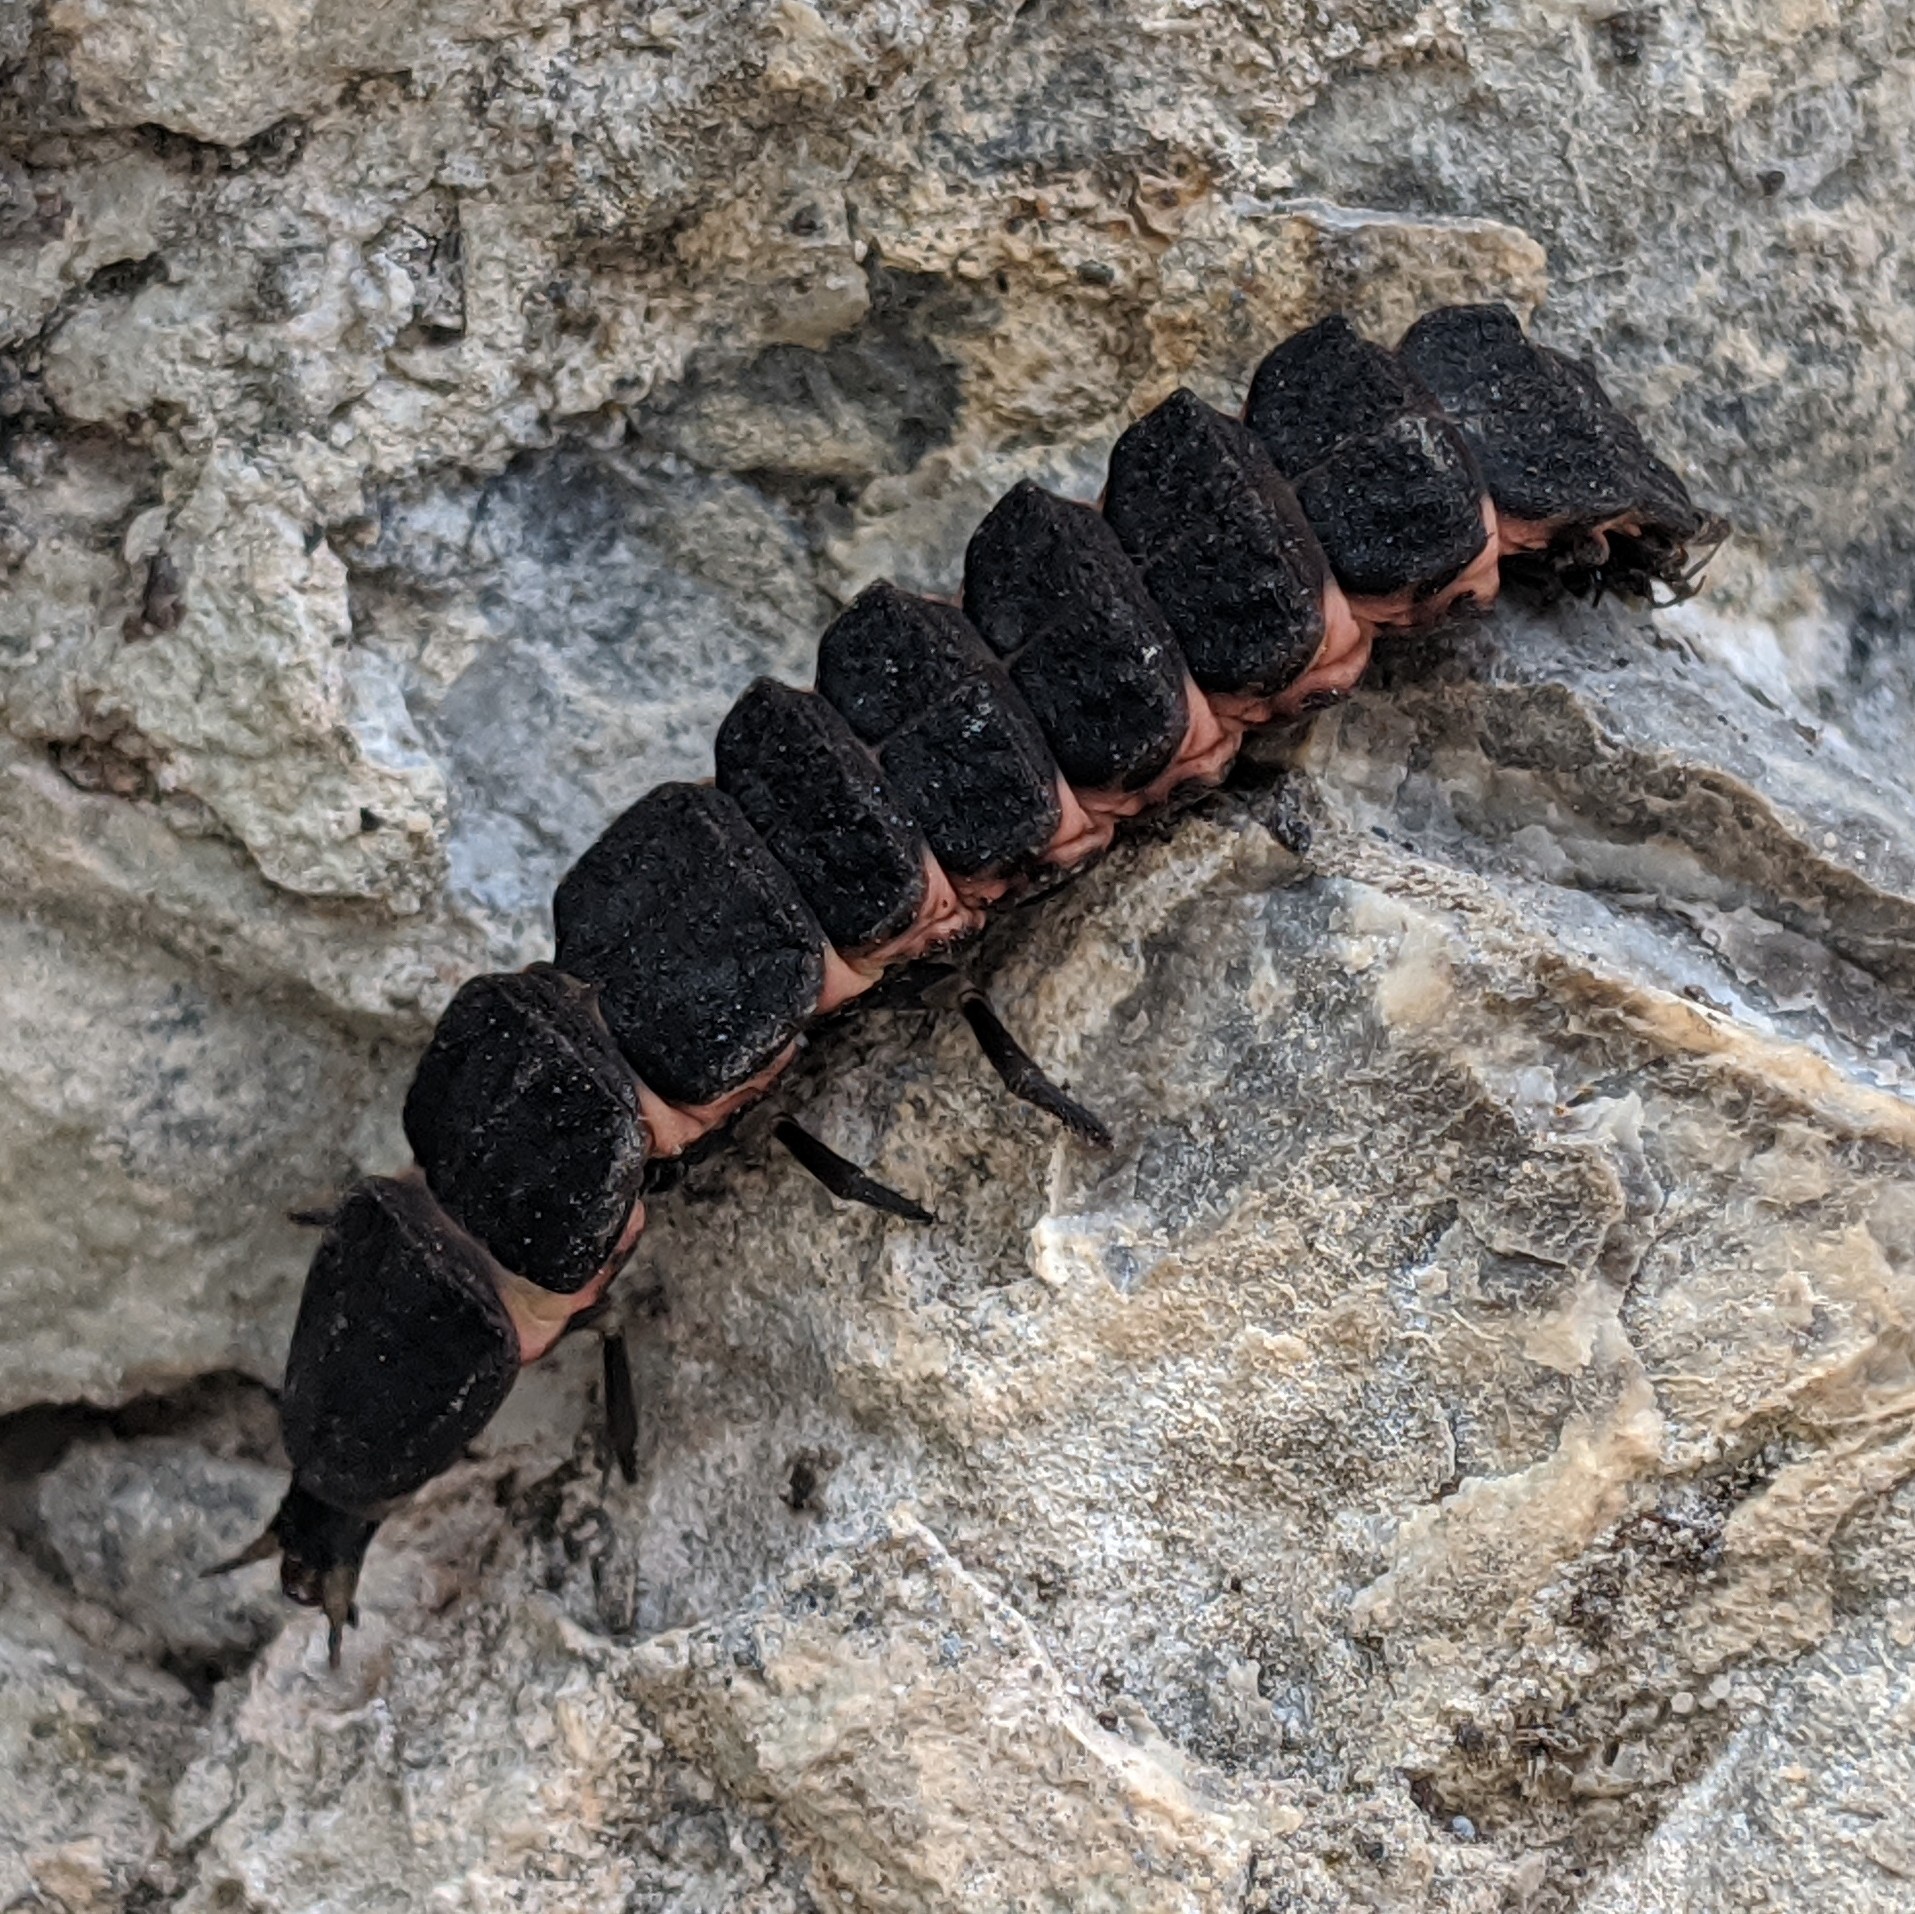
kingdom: Animalia
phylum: Arthropoda
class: Insecta
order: Coleoptera
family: Lampyridae
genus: Nyctophila
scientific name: Nyctophila reichii
